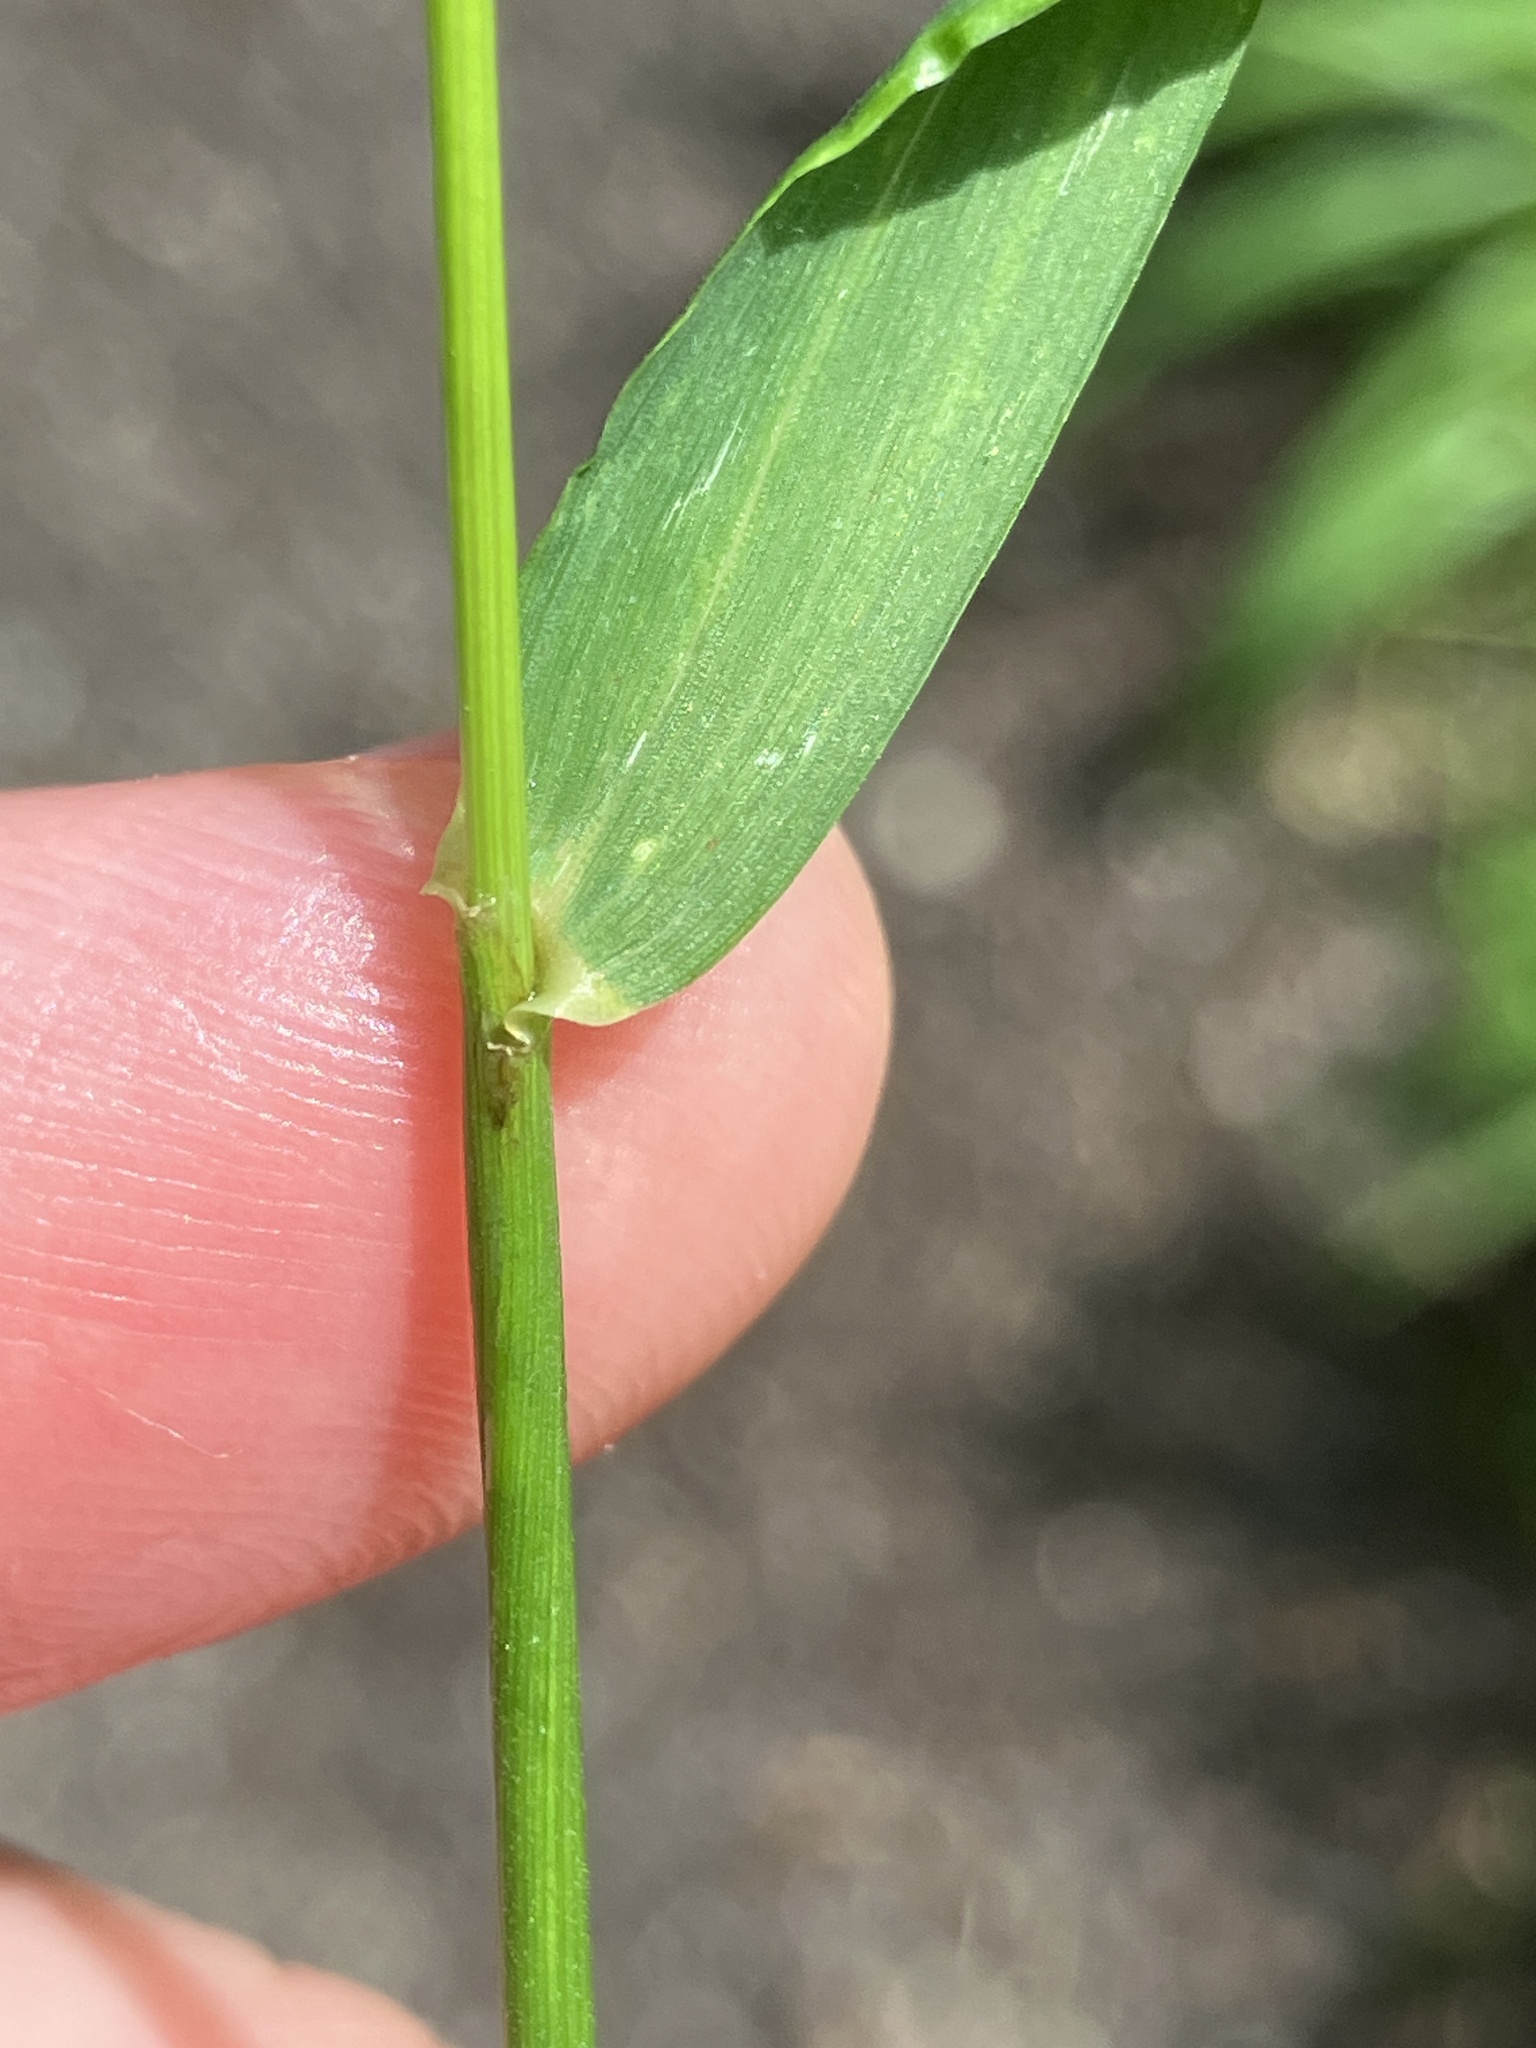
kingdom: Plantae
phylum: Tracheophyta
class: Liliopsida
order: Poales
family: Poaceae
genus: Elymus
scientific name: Elymus caninus
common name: Bearded couch
